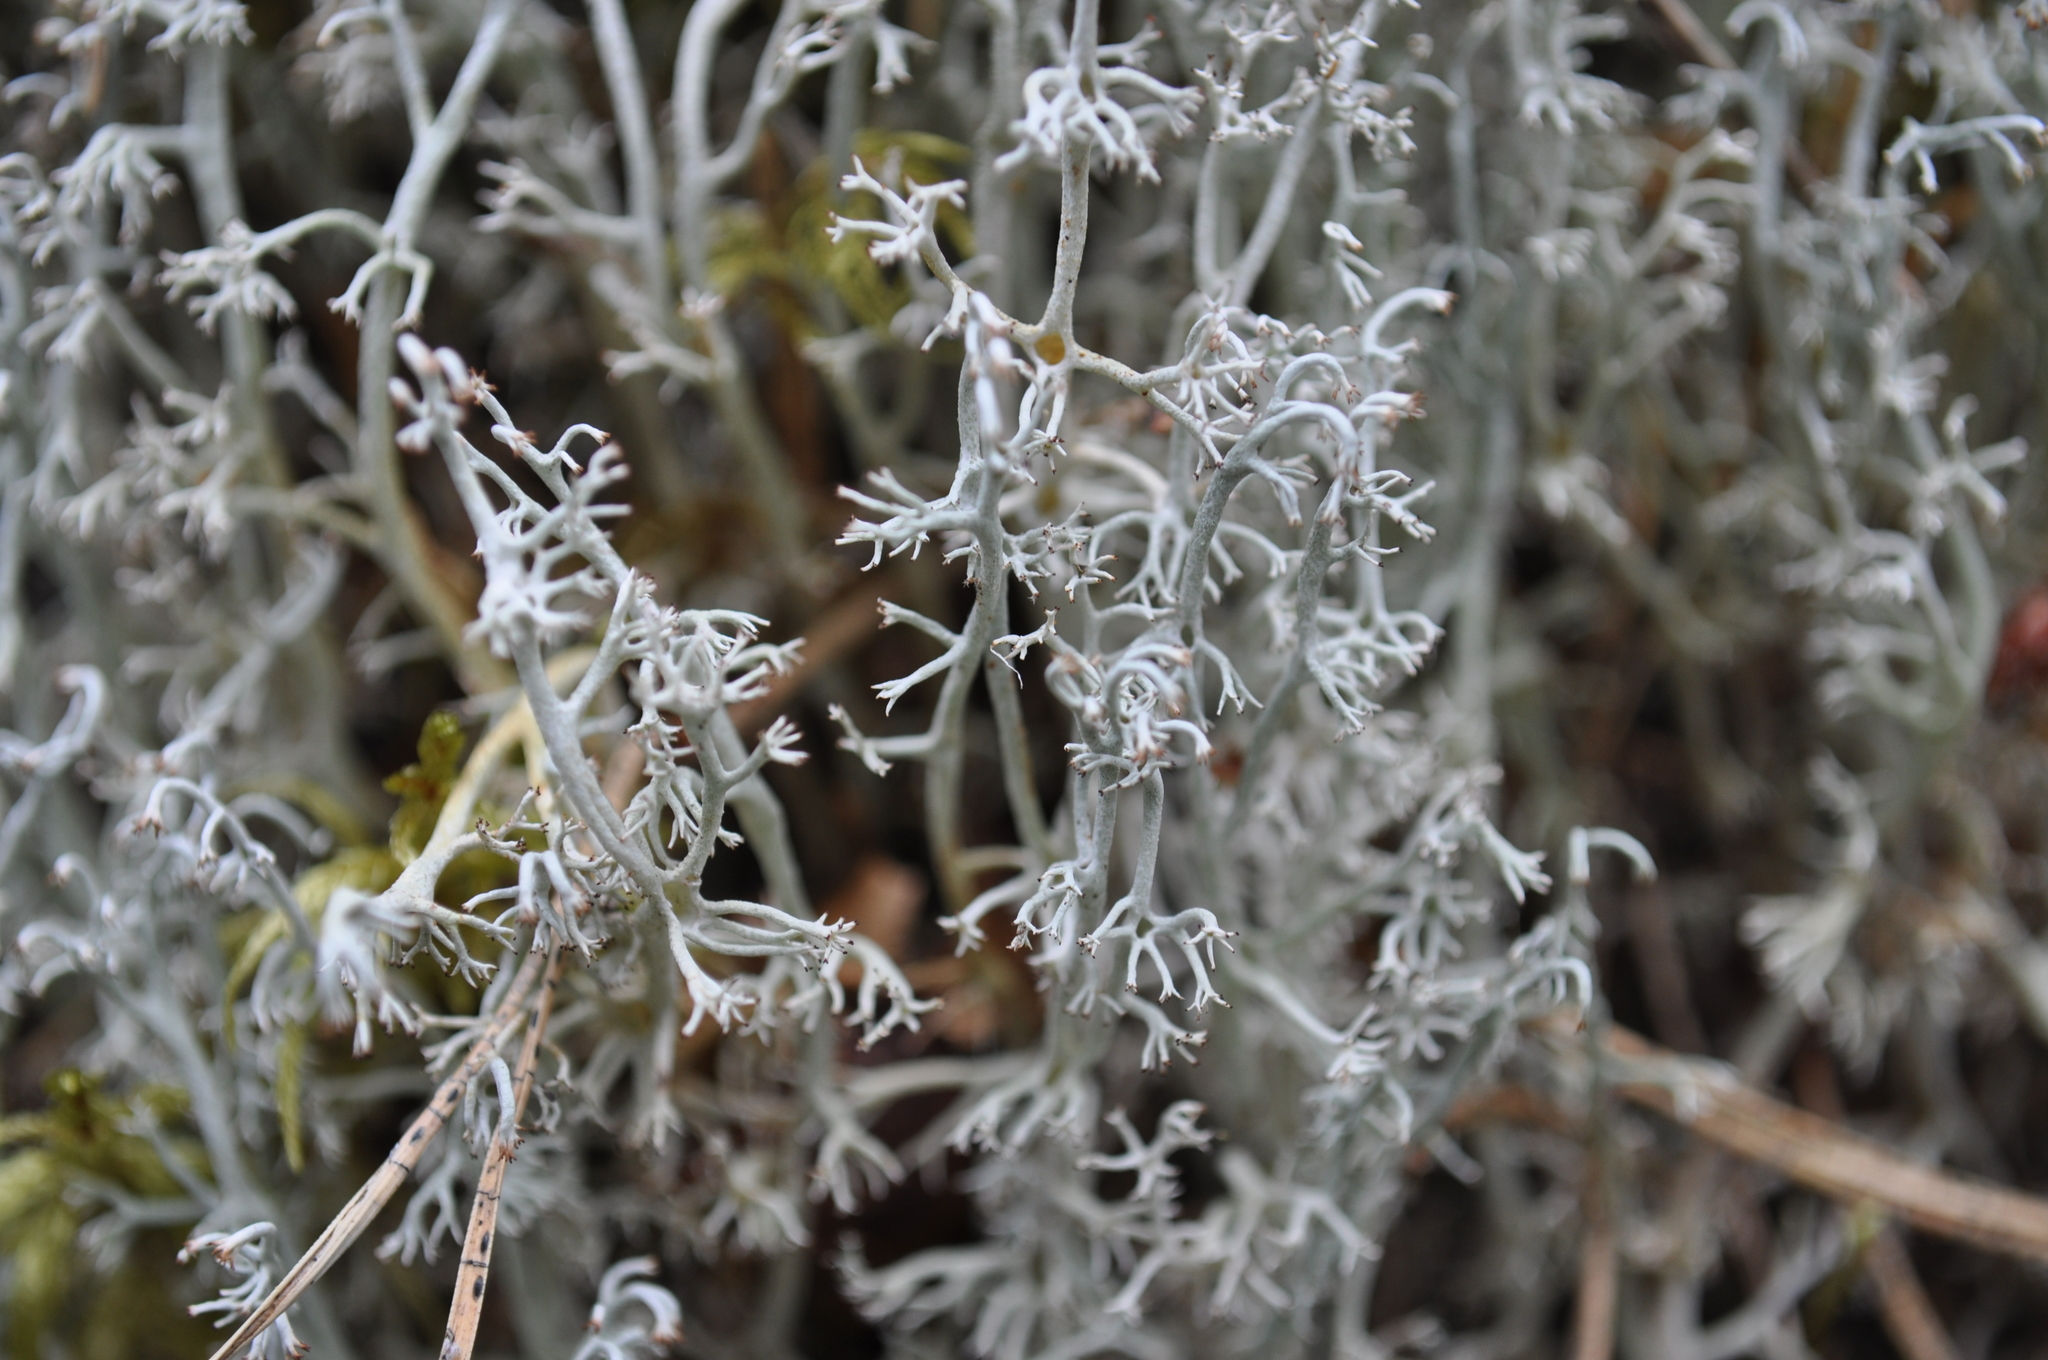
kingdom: Fungi
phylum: Ascomycota
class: Lecanoromycetes
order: Lecanorales
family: Cladoniaceae
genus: Cladonia
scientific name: Cladonia rangiferina
